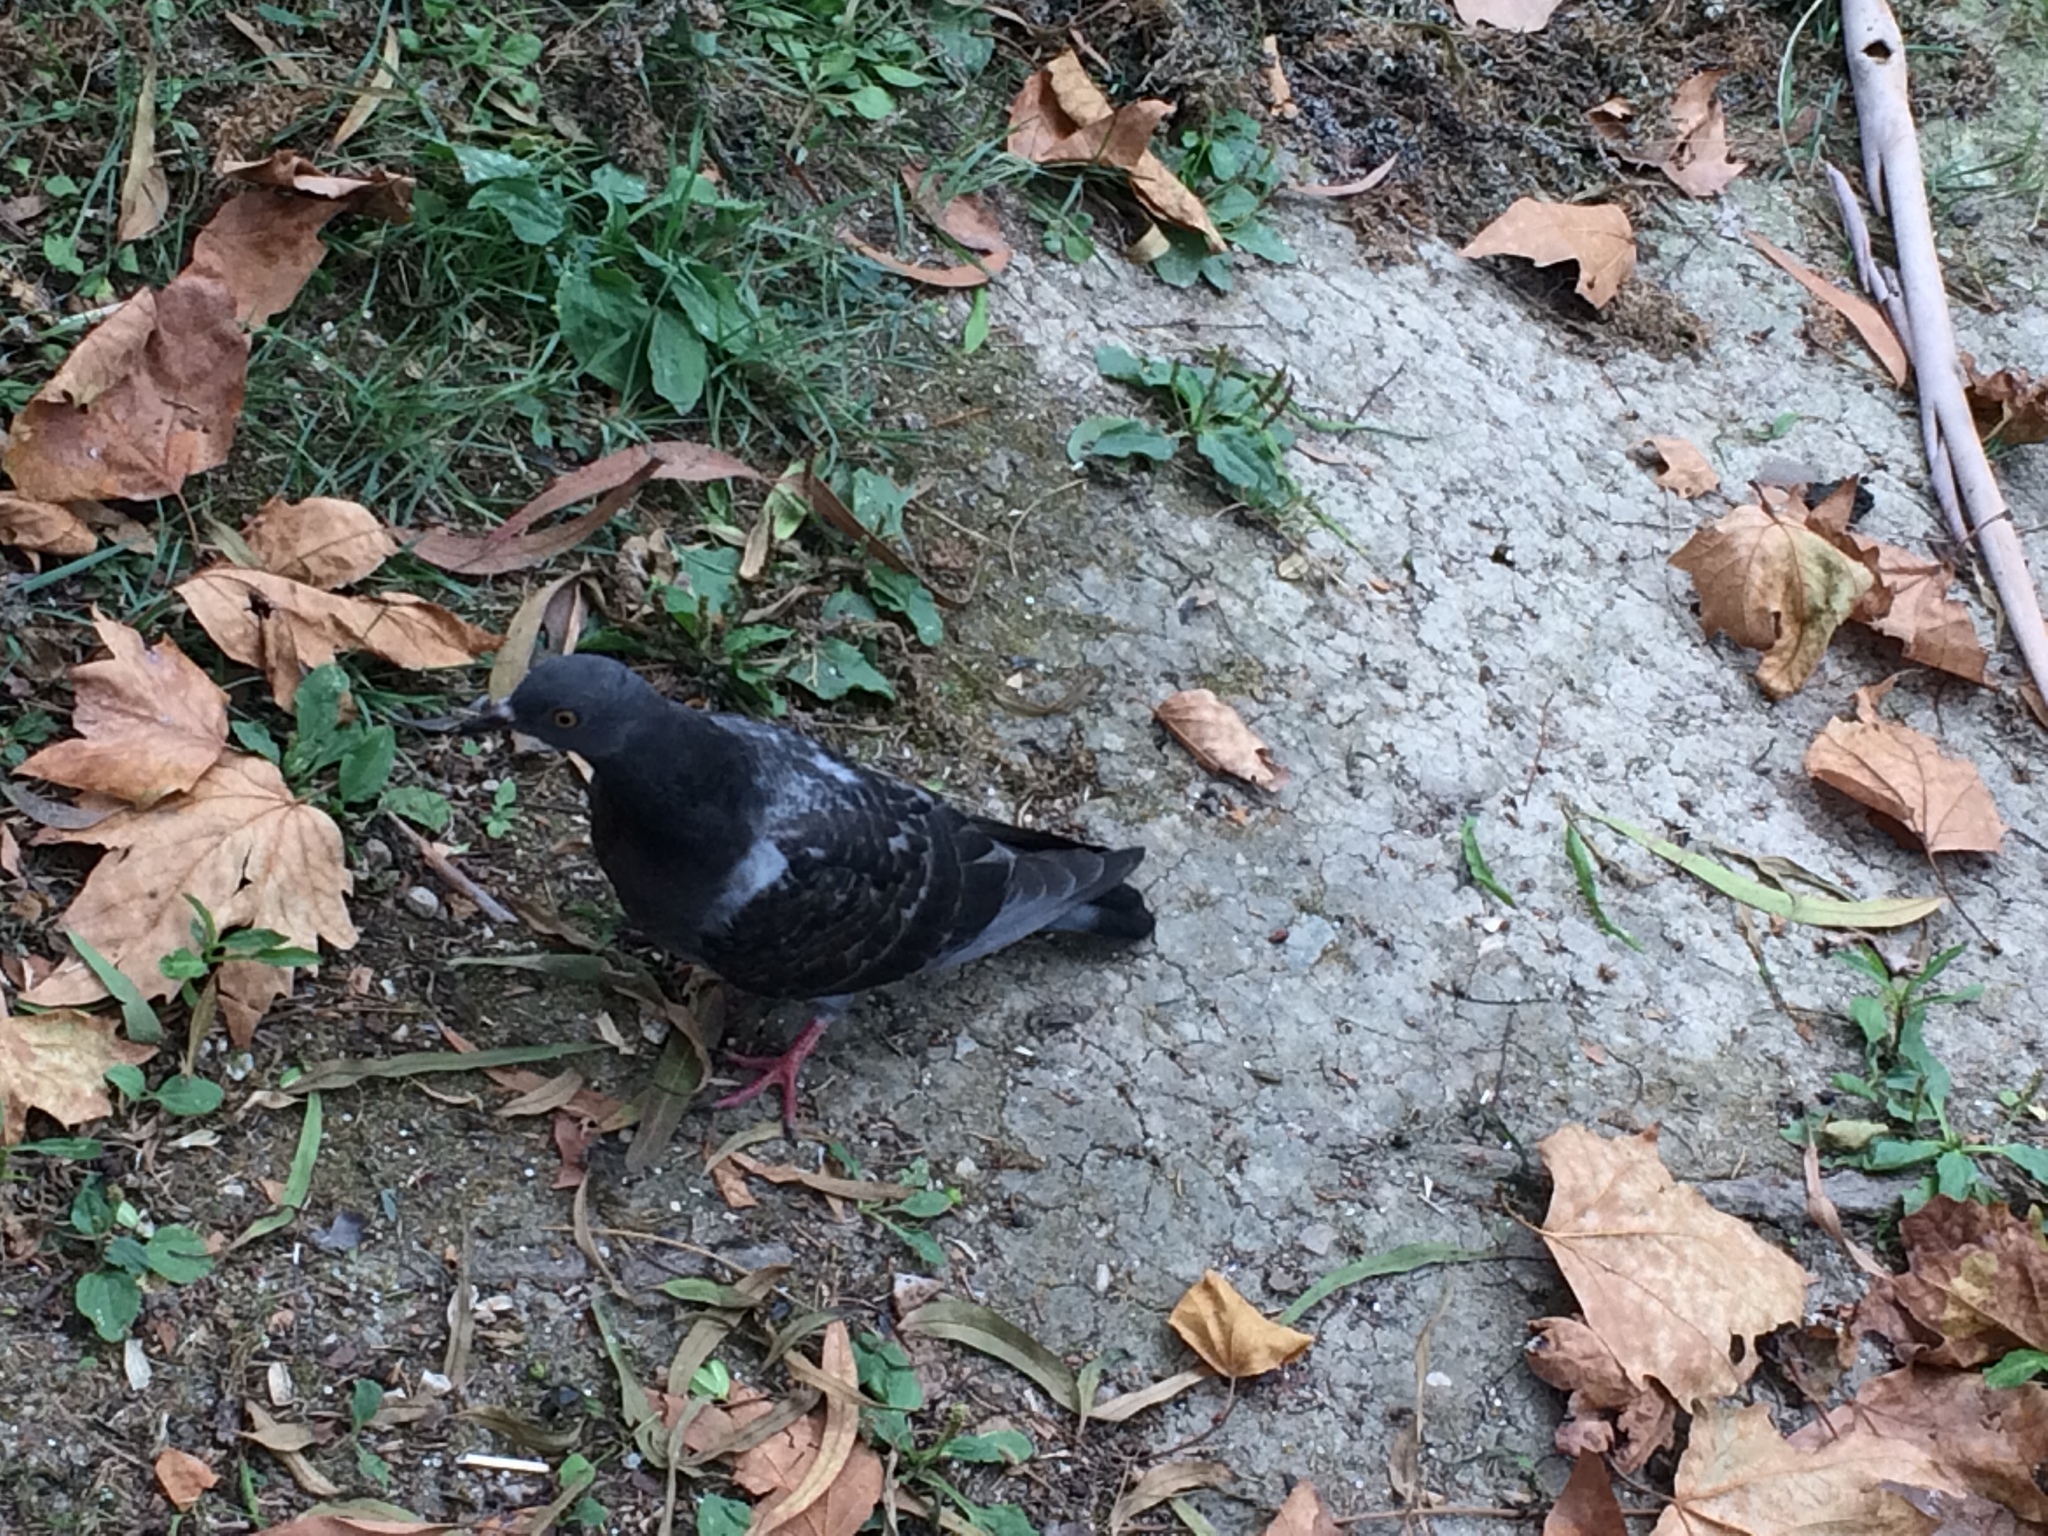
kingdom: Animalia
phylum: Chordata
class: Aves
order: Columbiformes
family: Columbidae
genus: Columba
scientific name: Columba livia
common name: Rock pigeon
